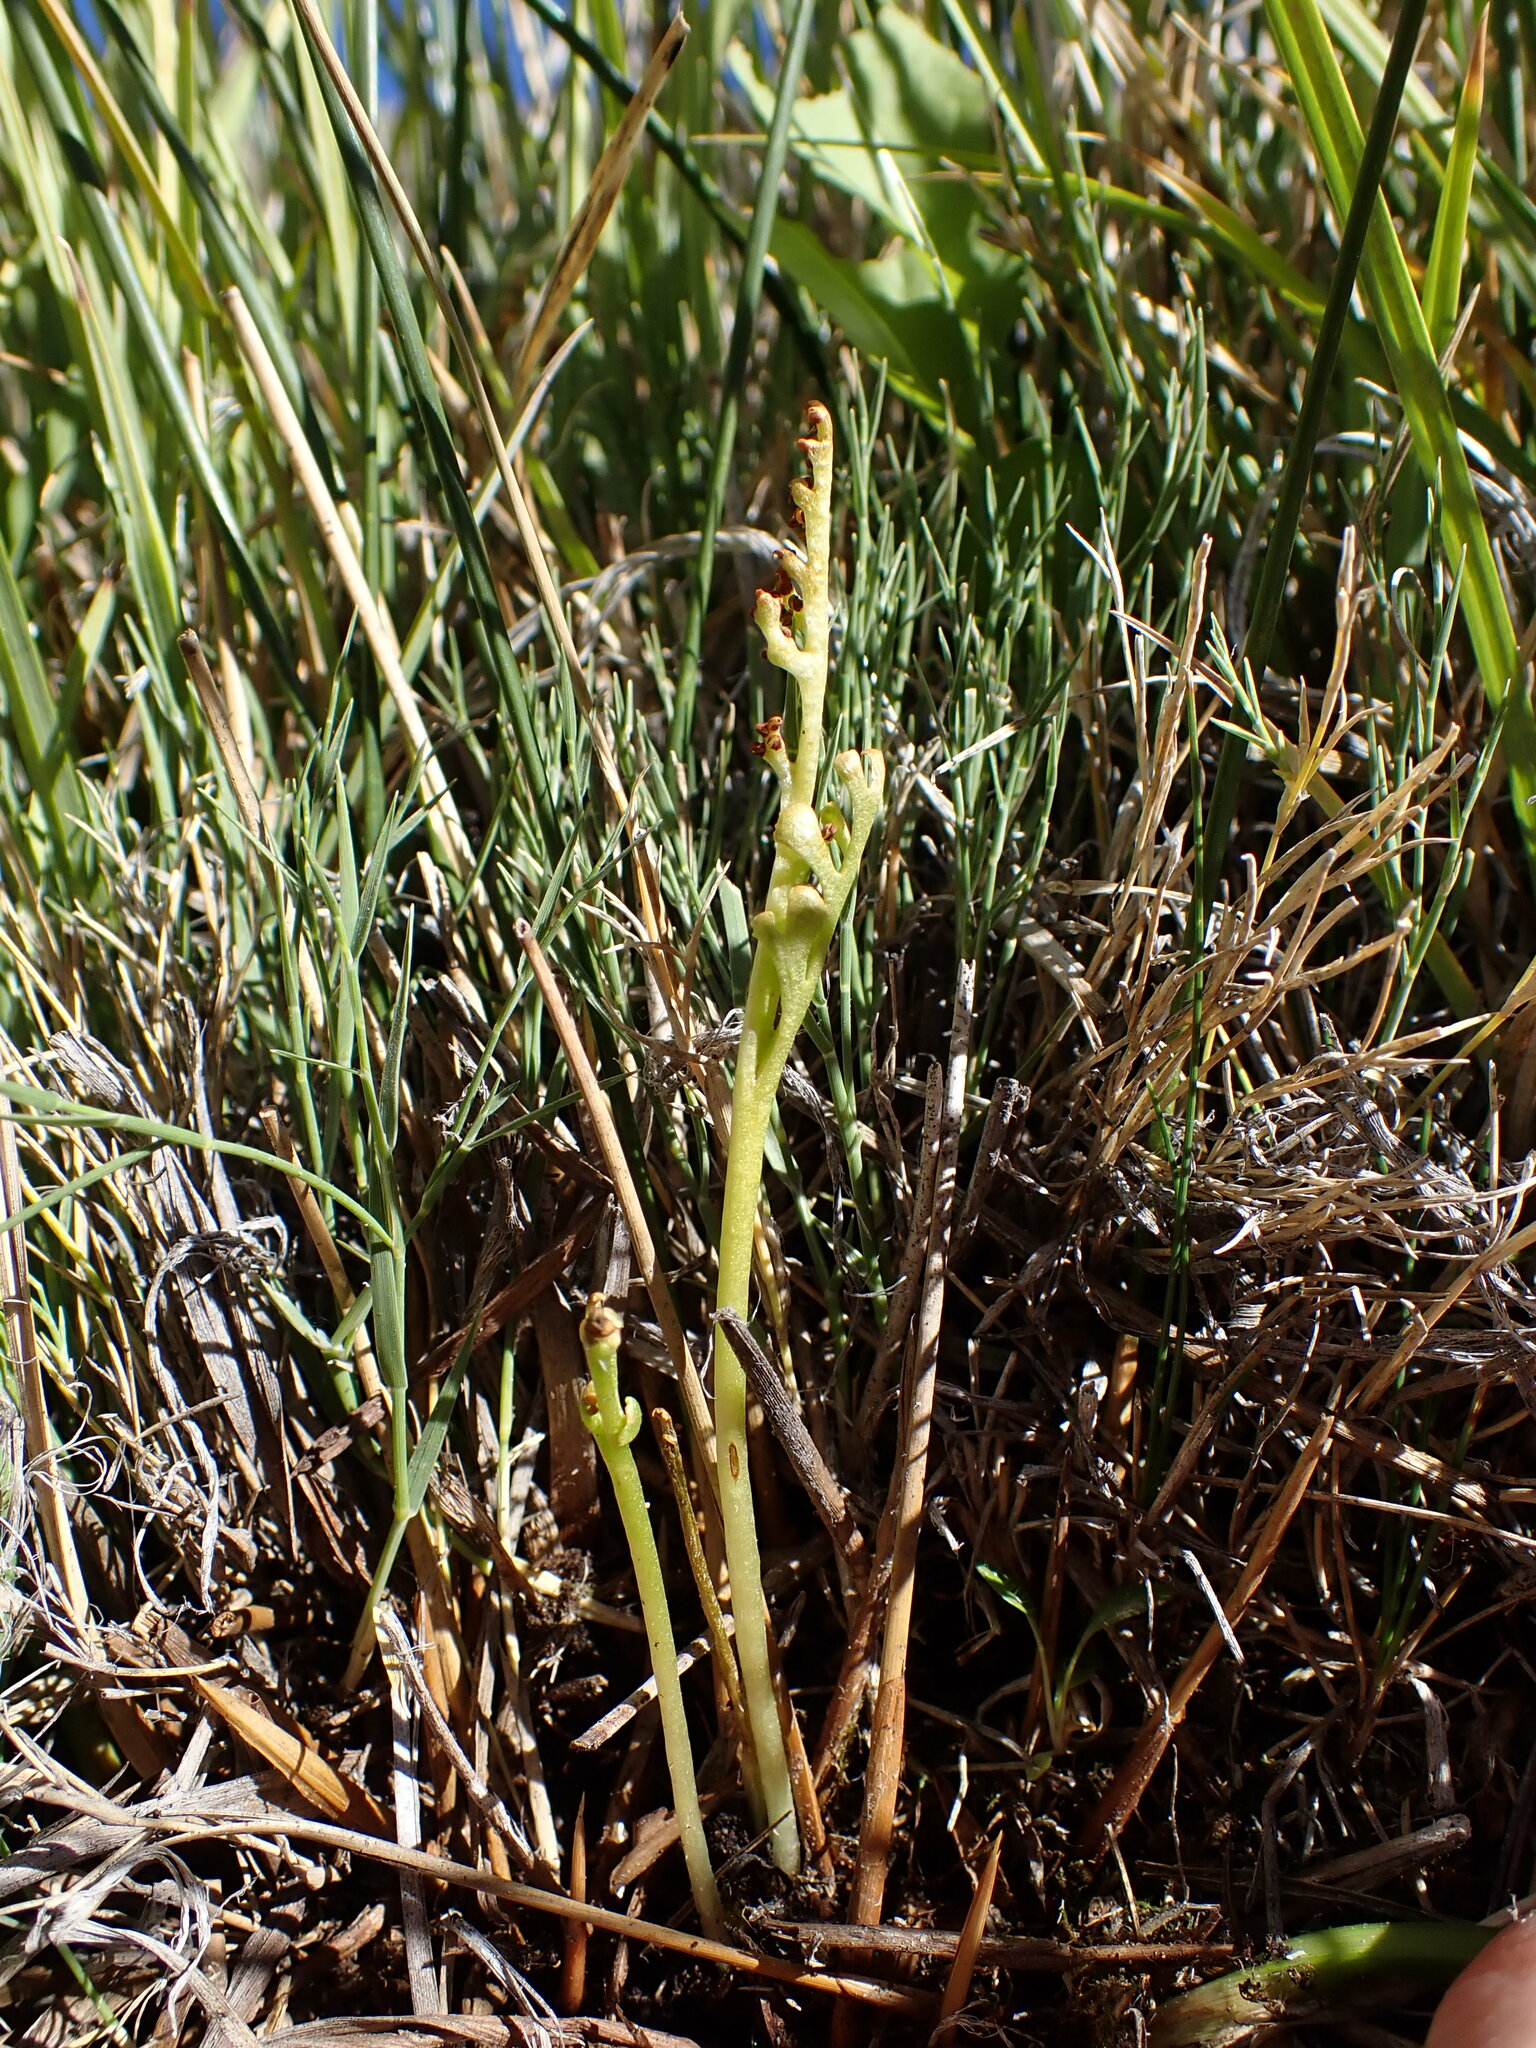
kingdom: Plantae
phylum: Tracheophyta
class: Polypodiopsida
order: Ophioglossales
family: Ophioglossaceae
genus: Botrychium
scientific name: Botrychium ascendens
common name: Ascending grapefern
